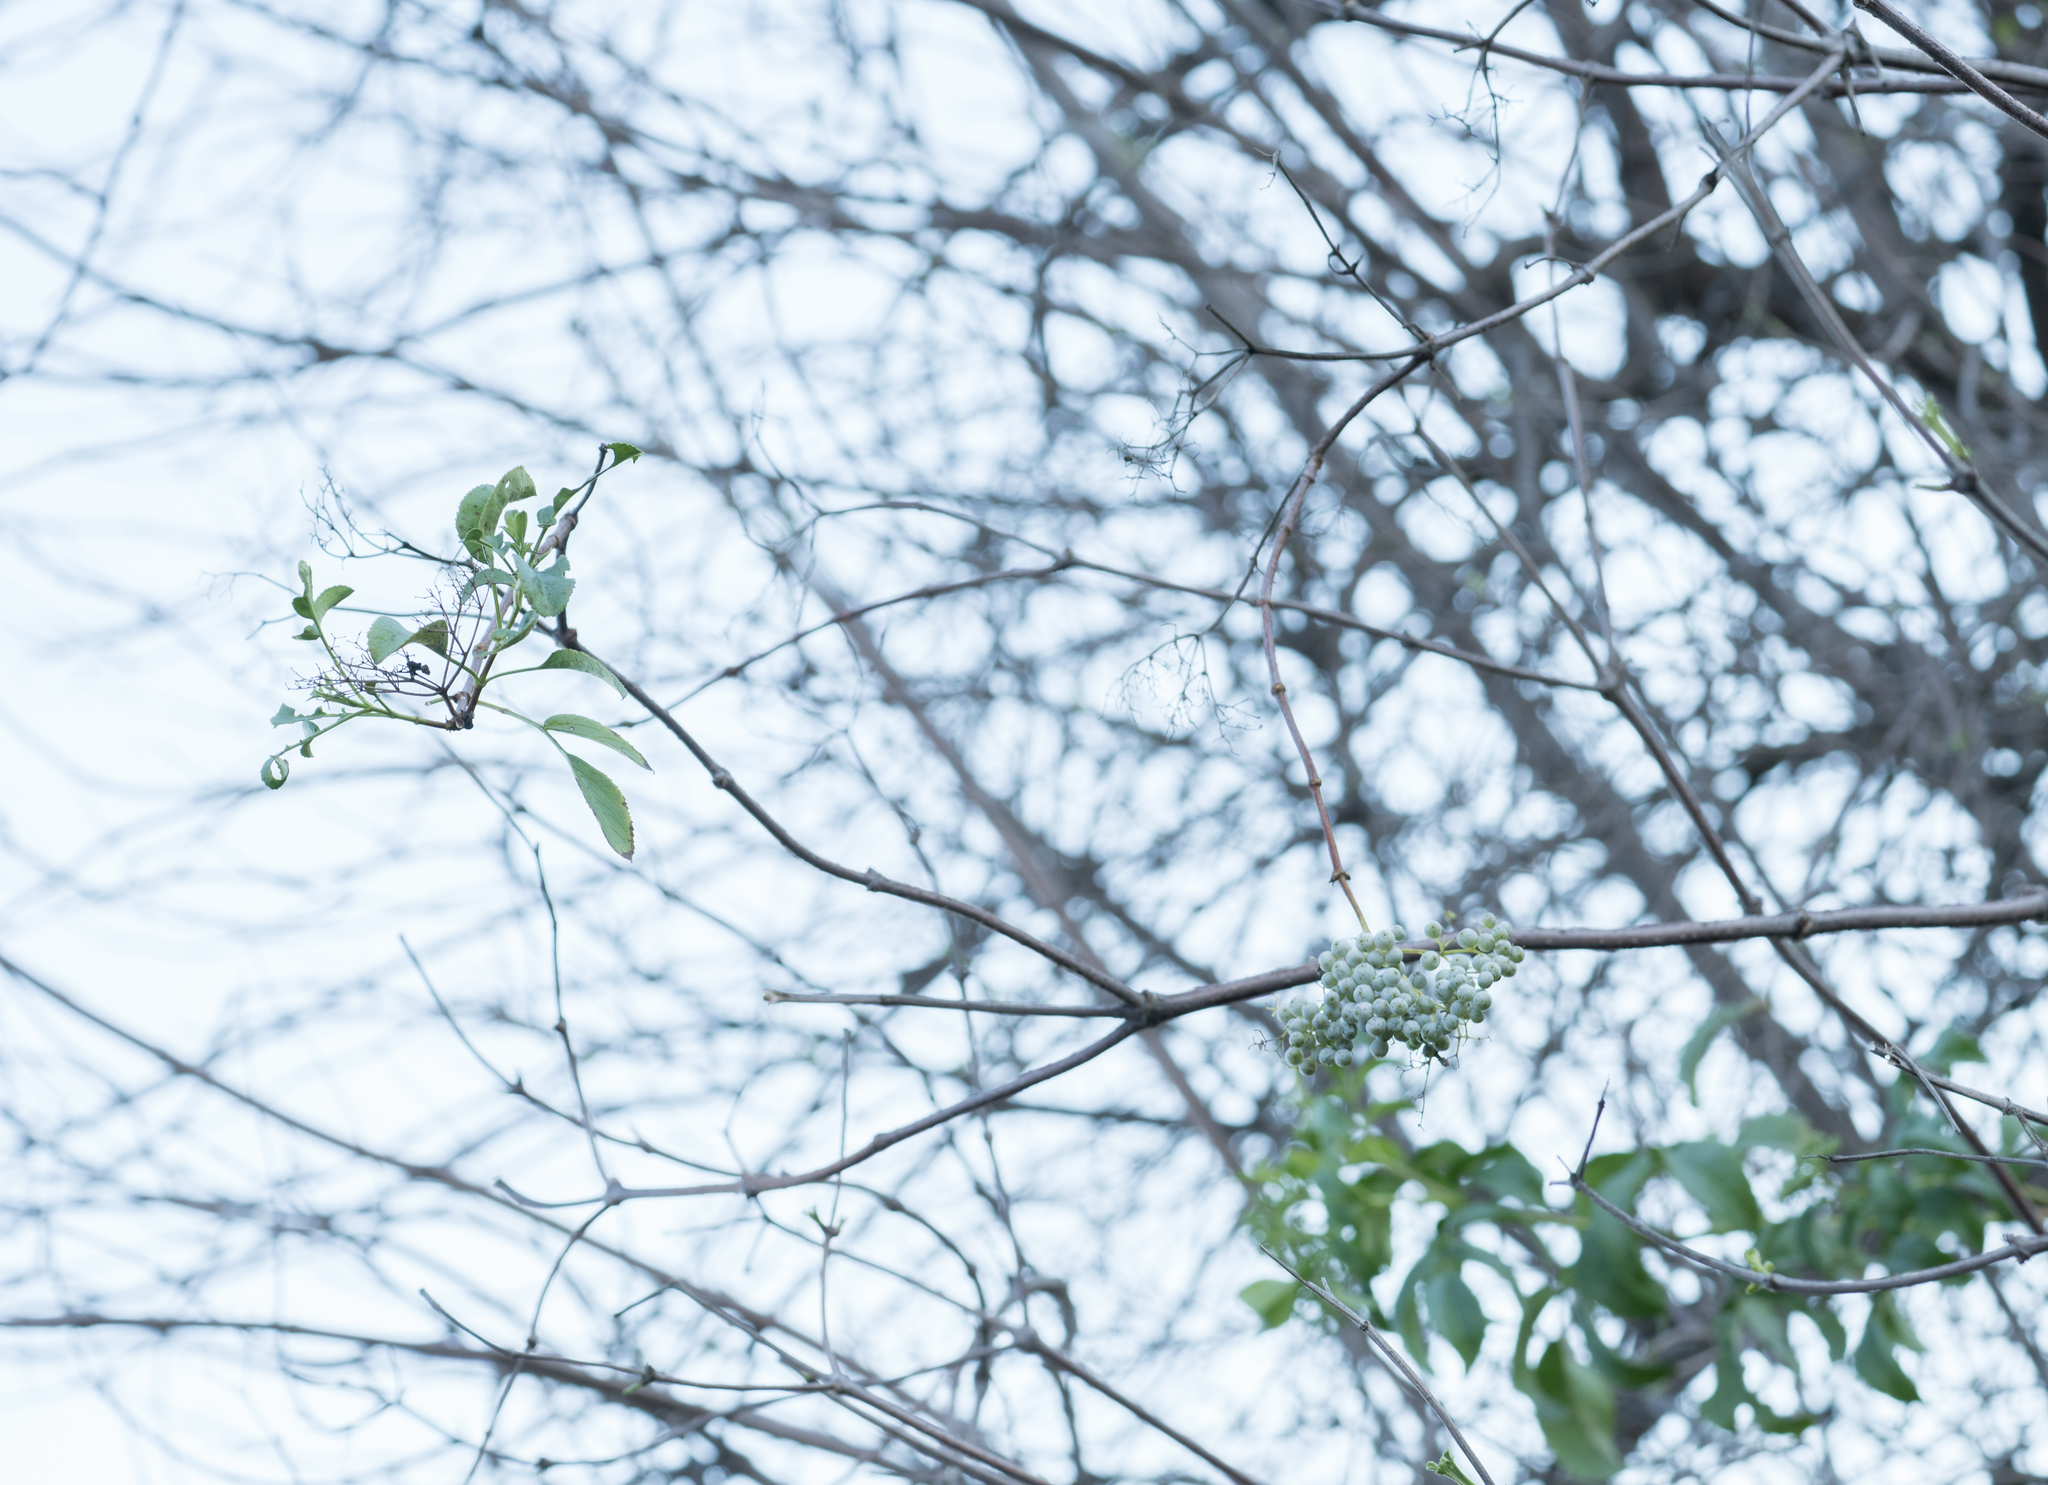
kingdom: Plantae
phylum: Tracheophyta
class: Magnoliopsida
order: Dipsacales
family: Viburnaceae
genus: Sambucus
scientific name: Sambucus cerulea
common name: Blue elder
